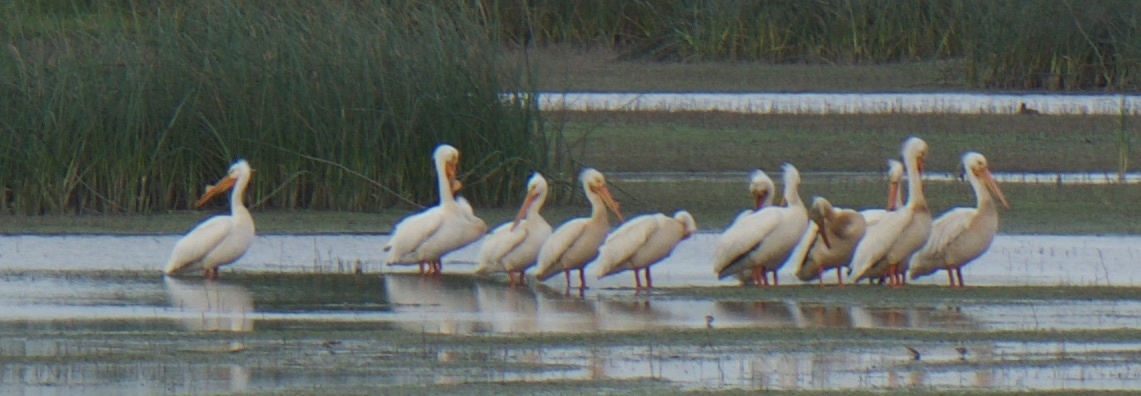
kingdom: Animalia
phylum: Chordata
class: Aves
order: Pelecaniformes
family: Pelecanidae
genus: Pelecanus
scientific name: Pelecanus erythrorhynchos
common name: American white pelican
